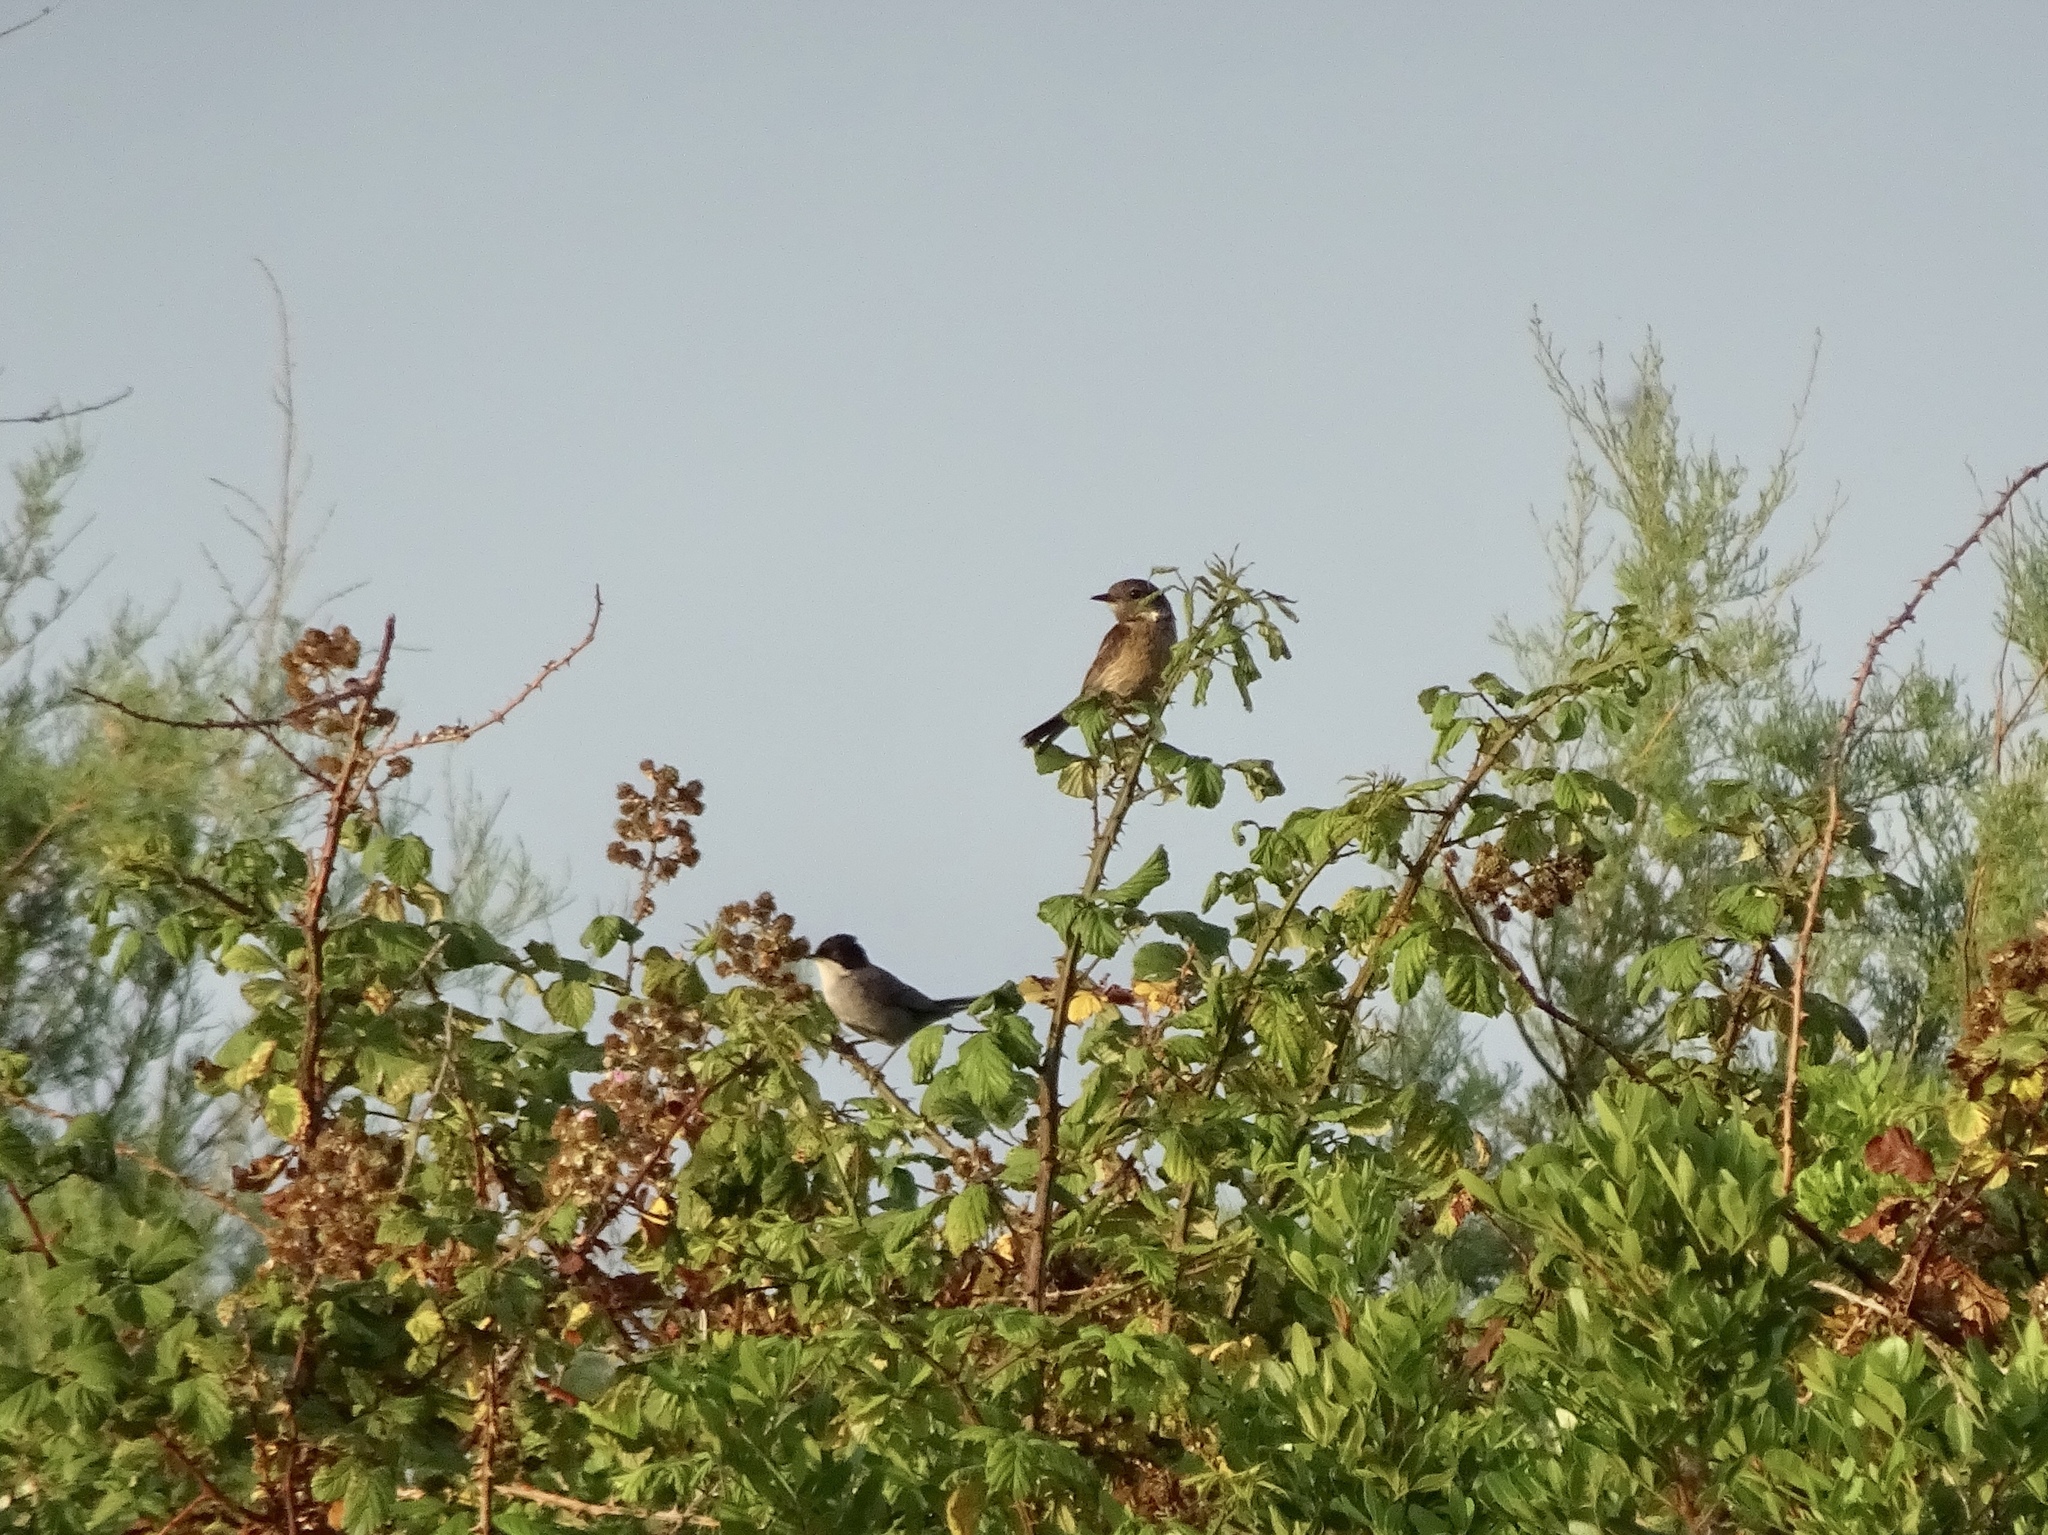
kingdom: Animalia
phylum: Chordata
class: Aves
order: Passeriformes
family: Muscicapidae
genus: Saxicola
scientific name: Saxicola rubicola
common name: European stonechat
